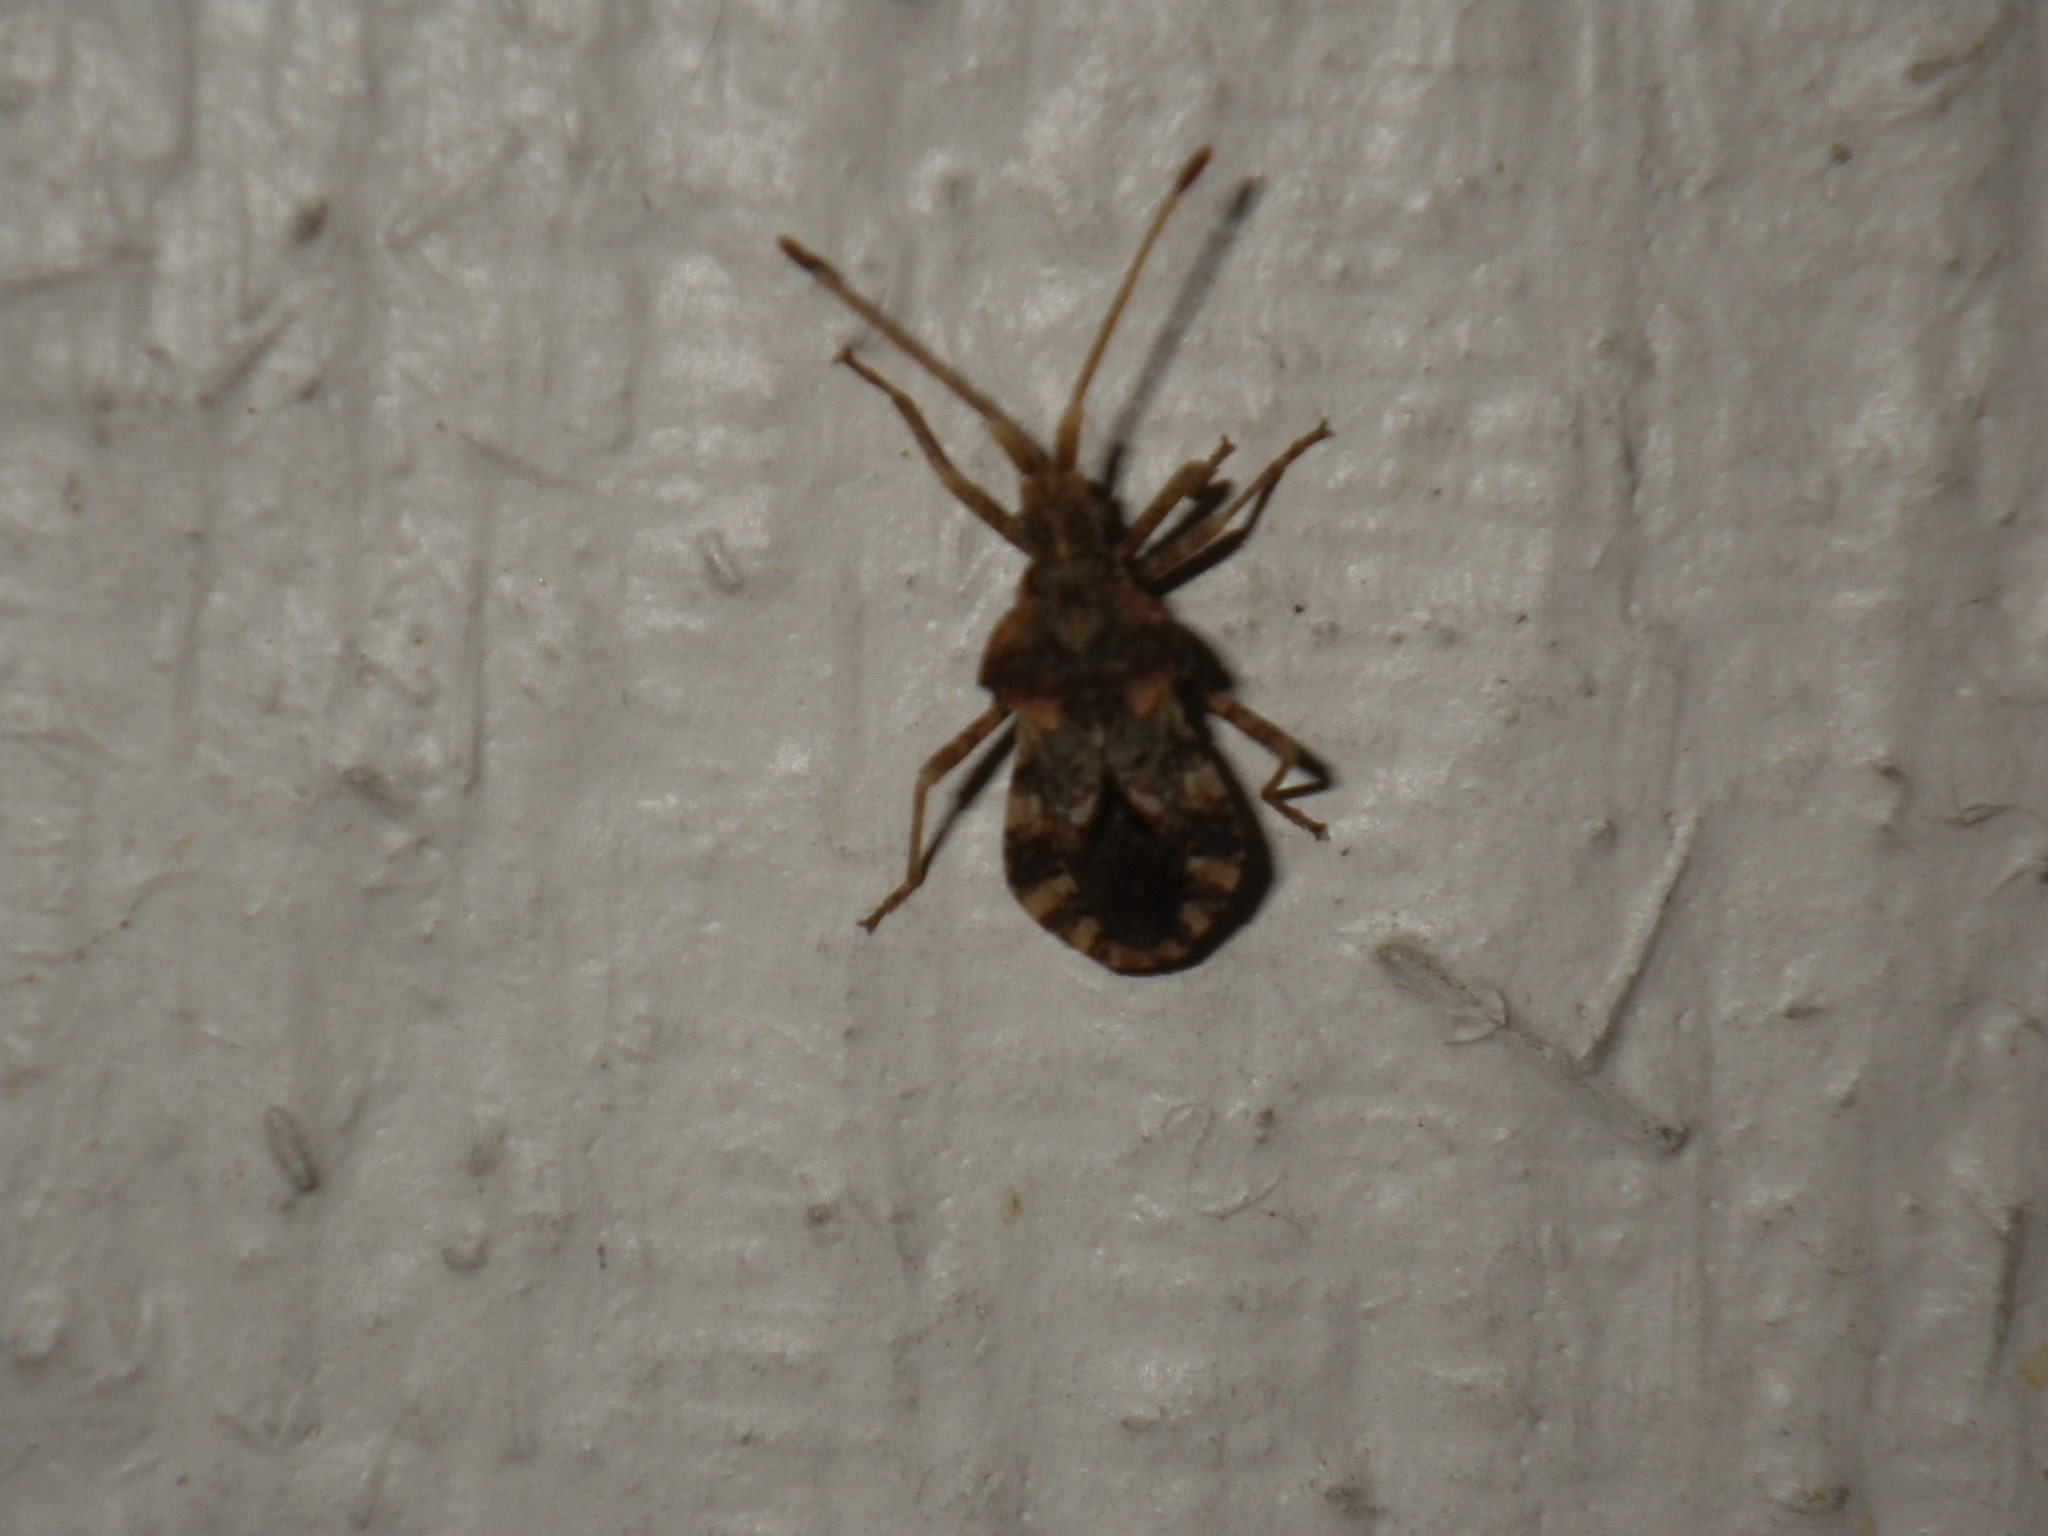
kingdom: Animalia
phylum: Arthropoda
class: Insecta
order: Hemiptera
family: Coreidae
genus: Centrocoris
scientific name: Centrocoris variegatus
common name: Leaf-footed bug
